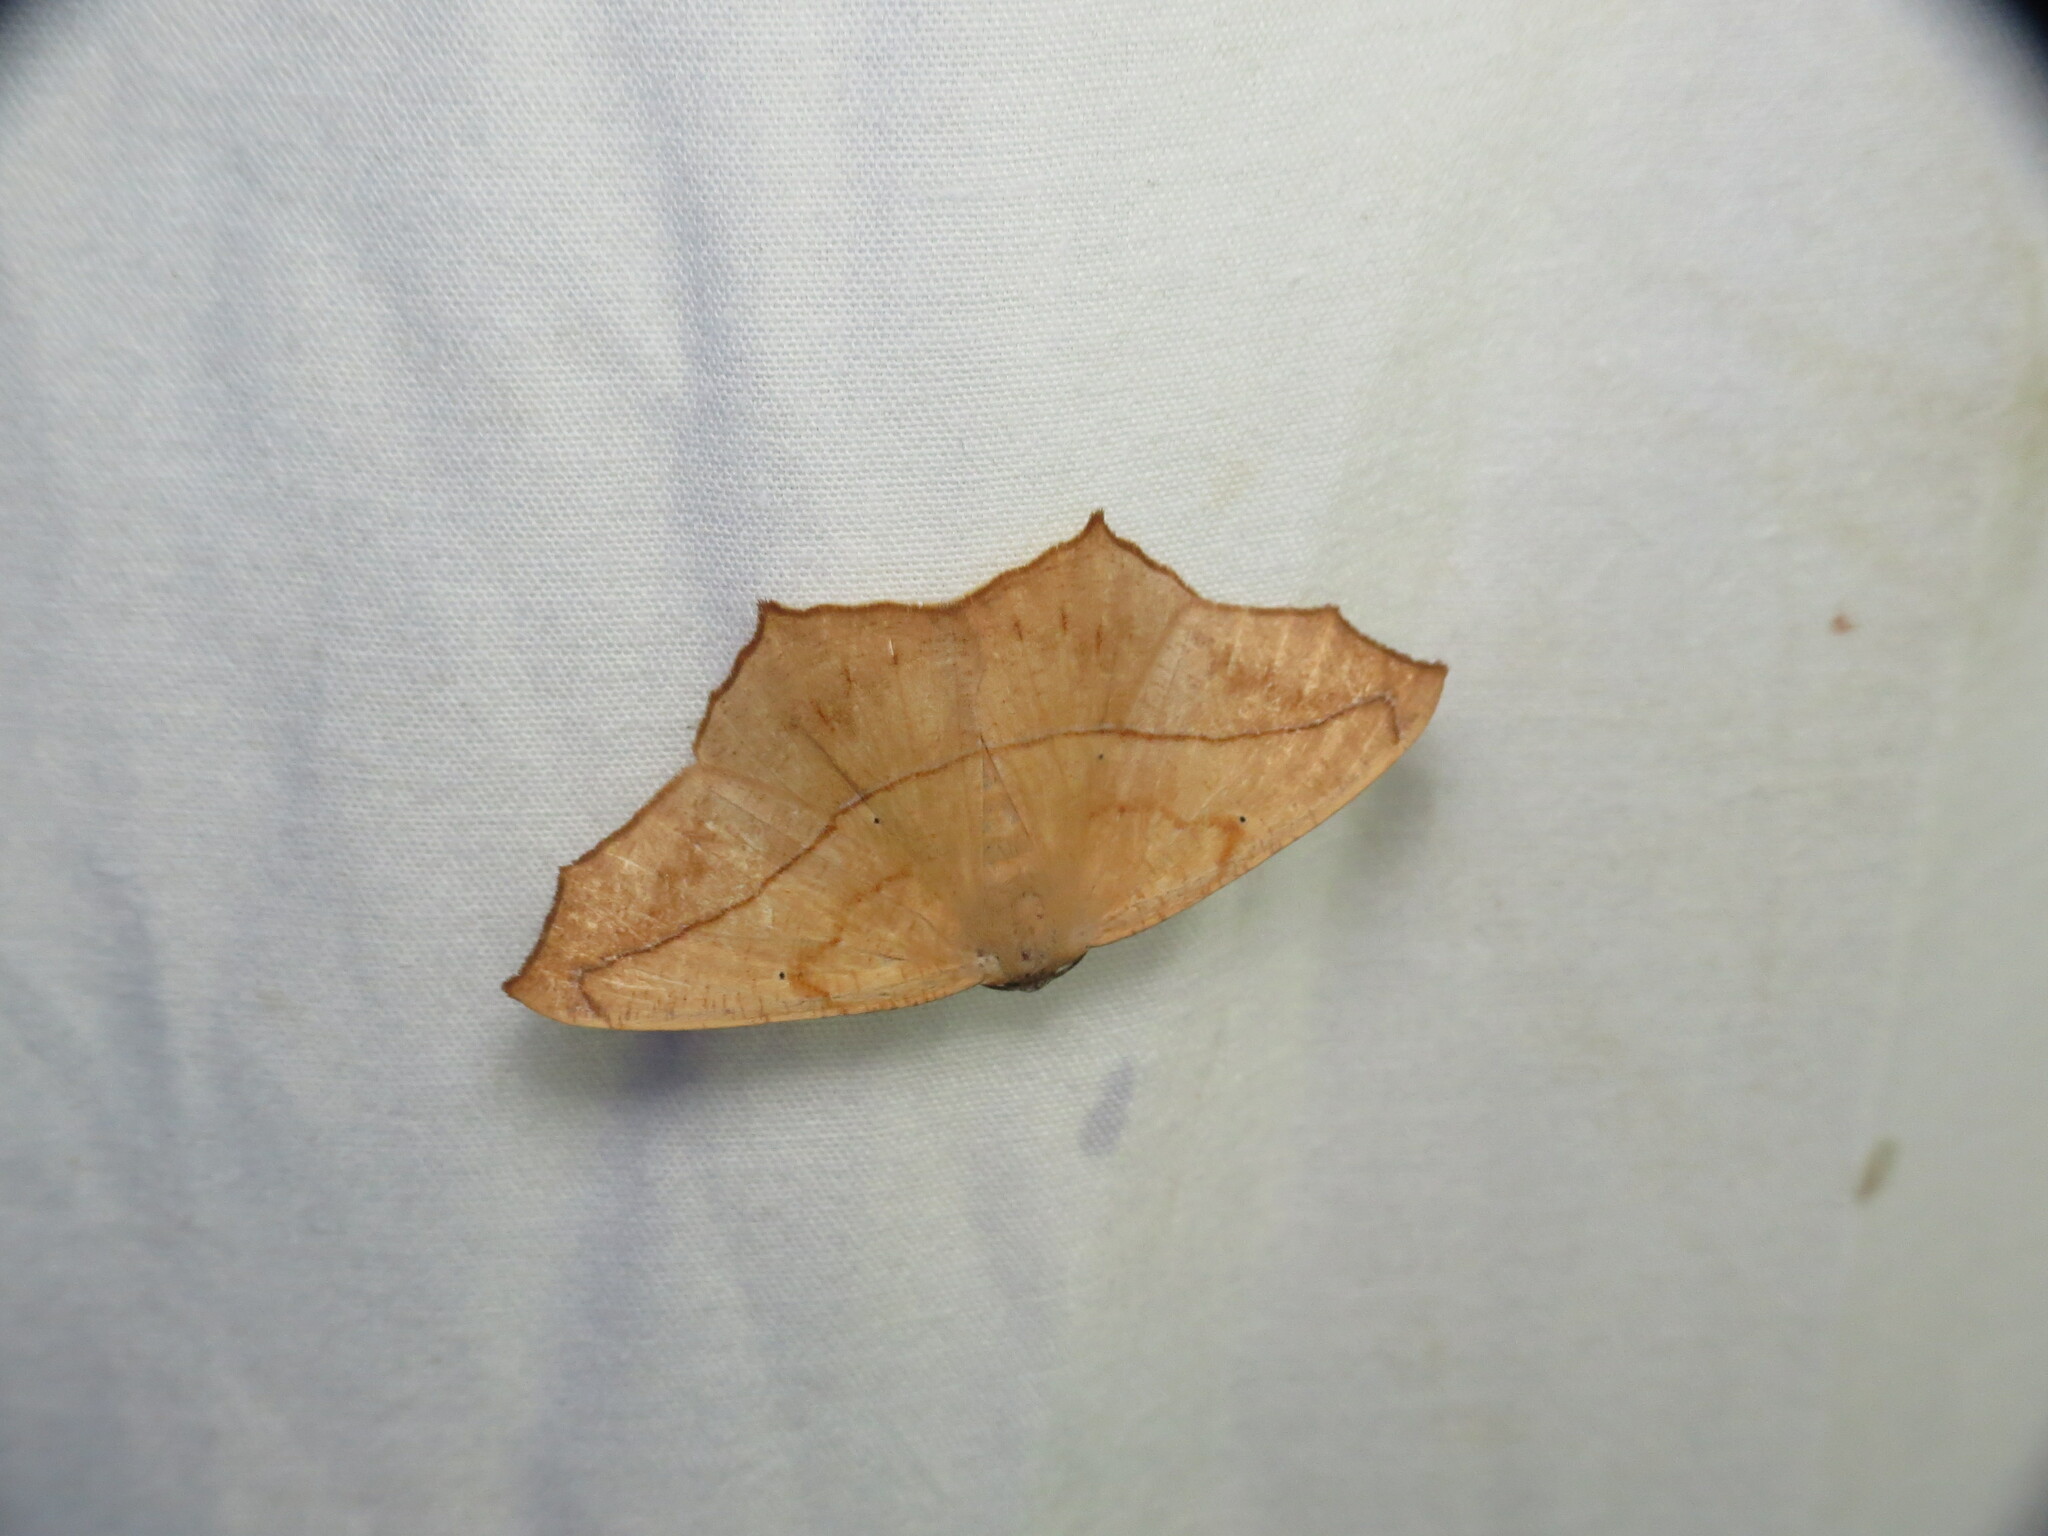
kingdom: Animalia
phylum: Arthropoda
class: Insecta
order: Lepidoptera
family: Geometridae
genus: Prochoerodes
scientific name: Prochoerodes lineola
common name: Large maple spanworm
